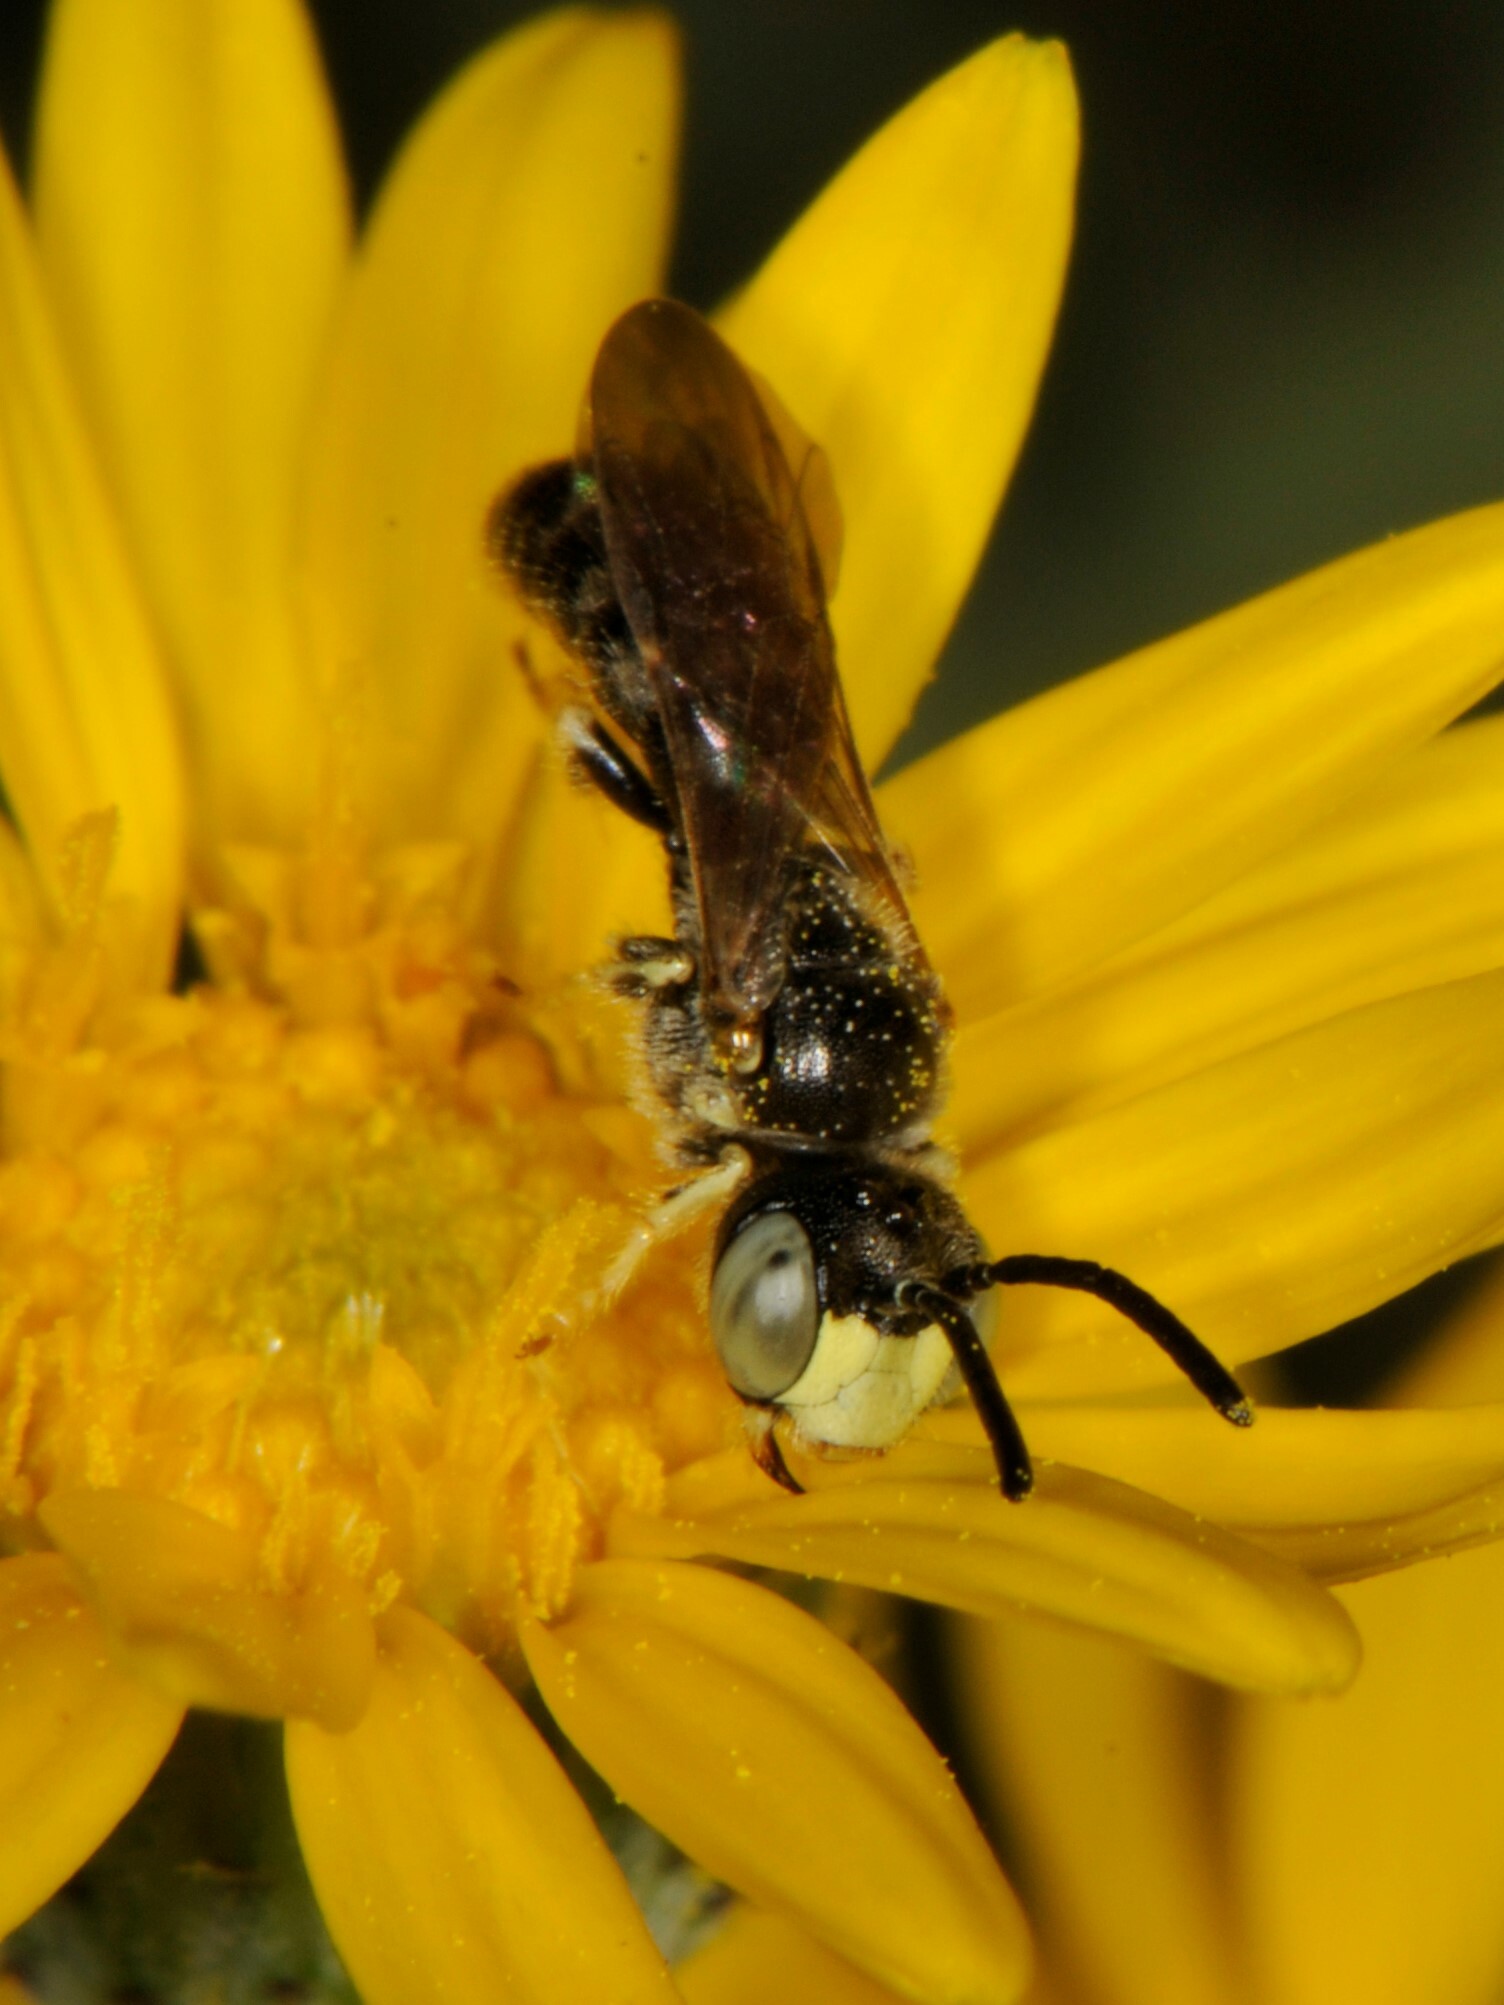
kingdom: Animalia
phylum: Arthropoda
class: Insecta
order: Hymenoptera
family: Andrenidae
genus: Pterosarus
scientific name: Pterosarus
